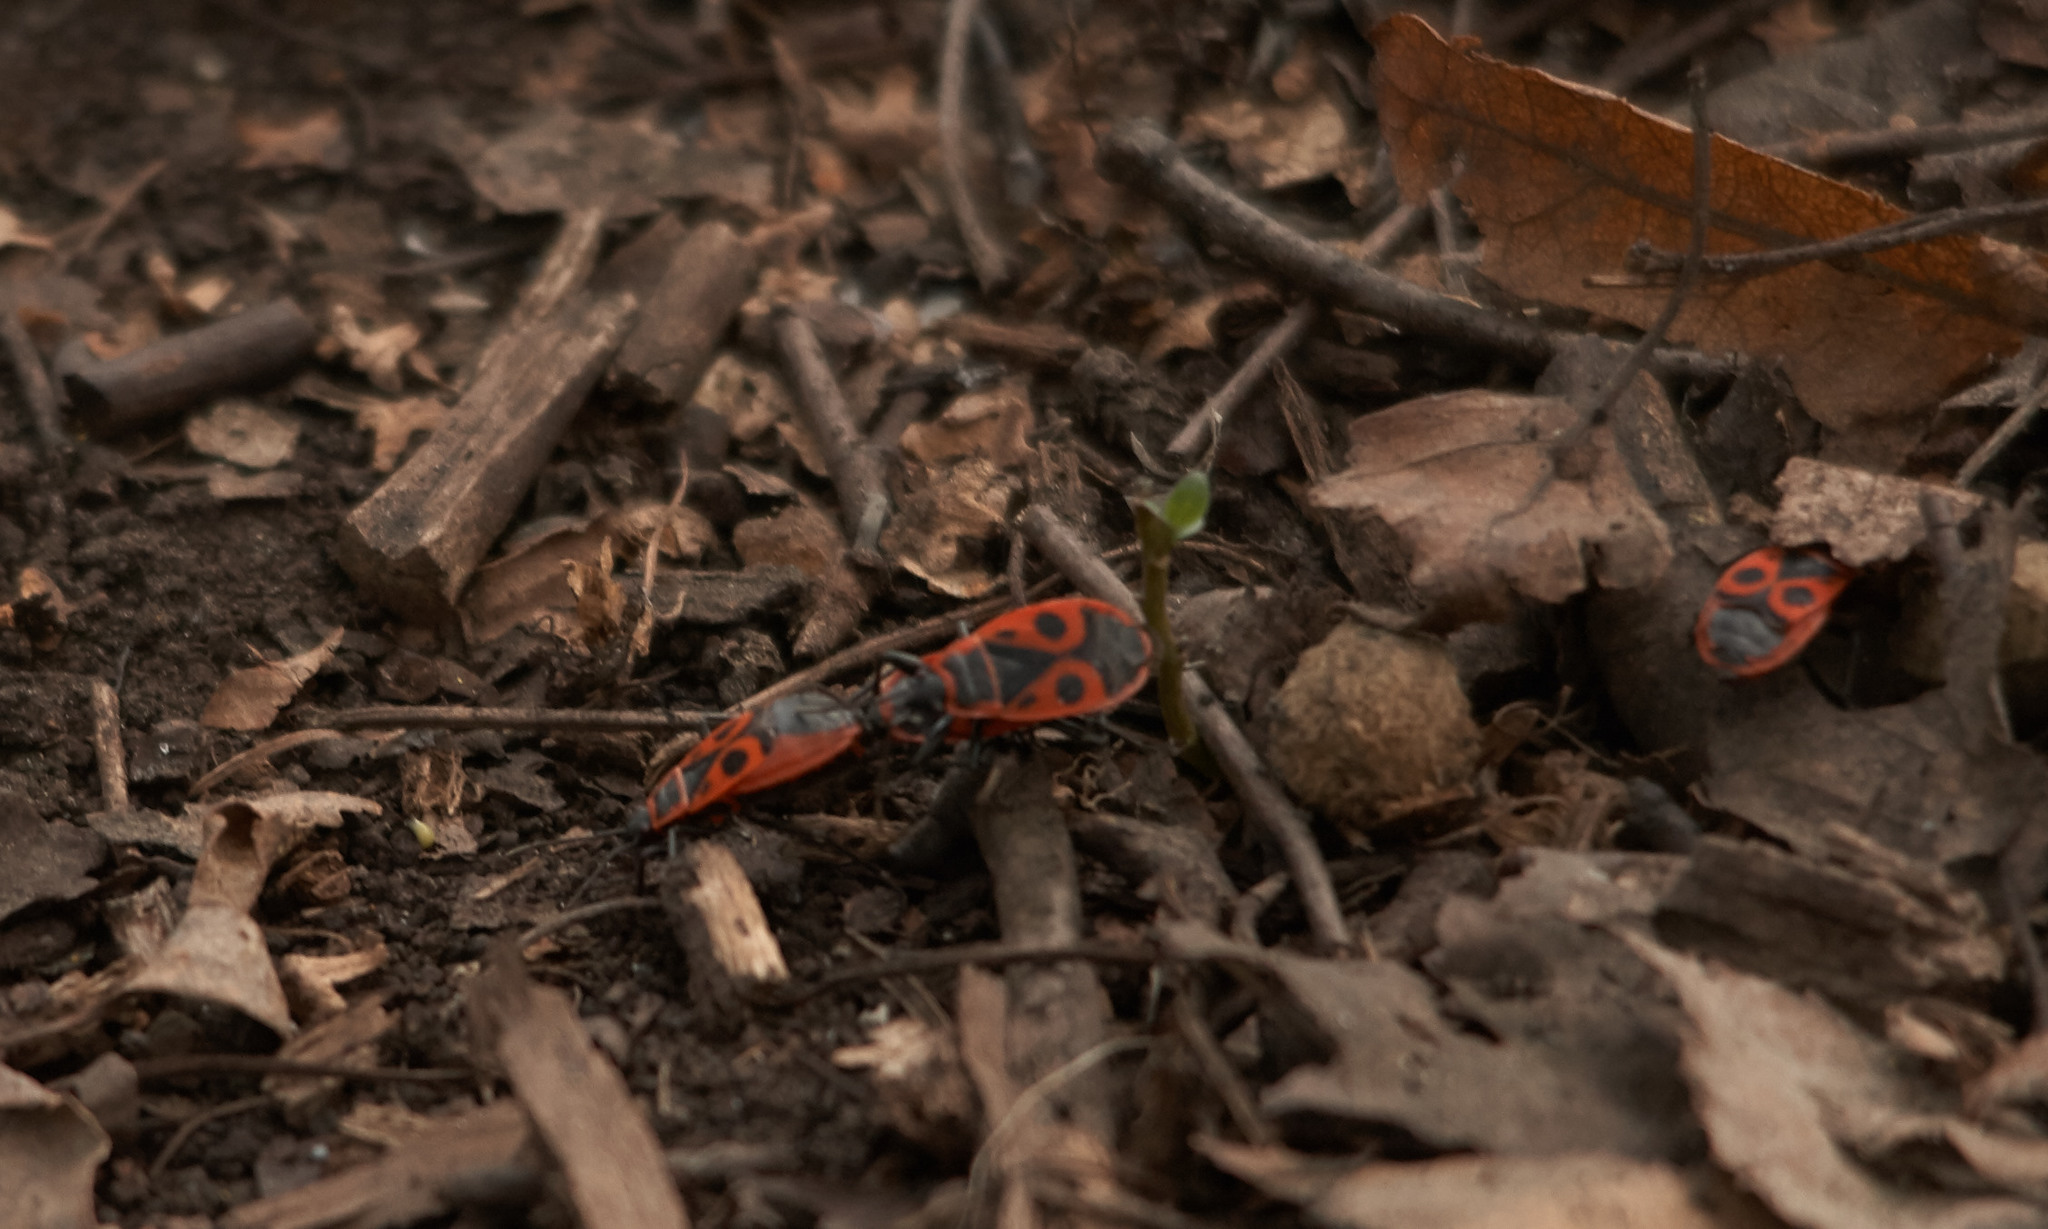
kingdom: Animalia
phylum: Arthropoda
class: Insecta
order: Hemiptera
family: Pyrrhocoridae
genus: Pyrrhocoris
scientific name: Pyrrhocoris apterus
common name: Firebug
